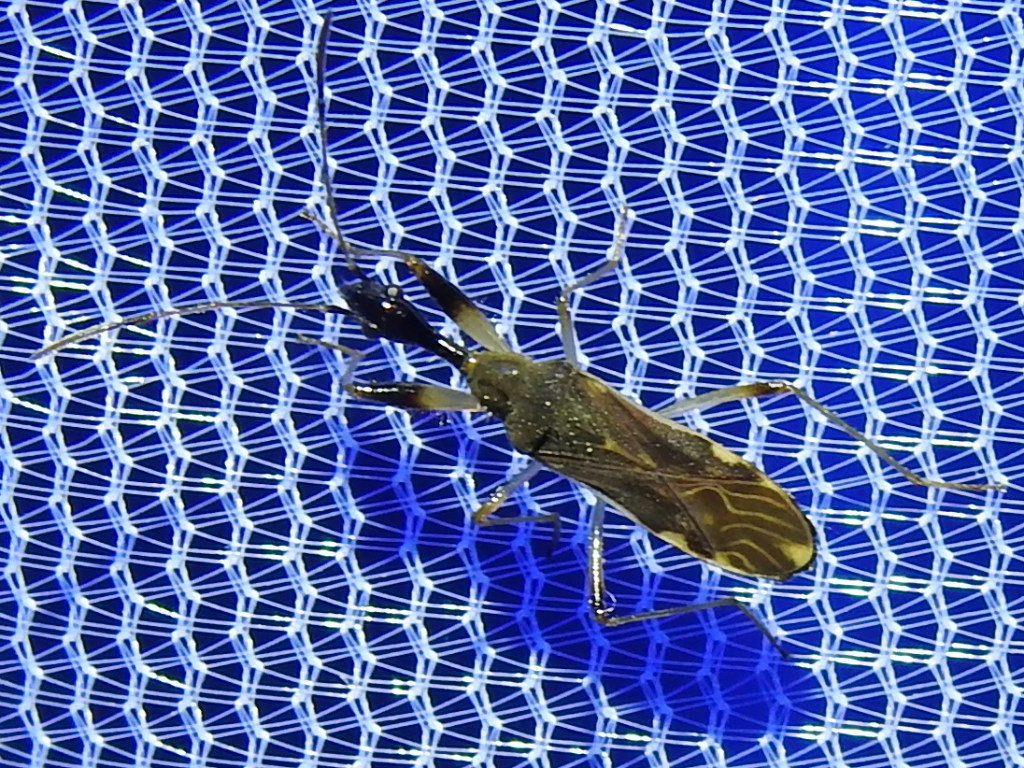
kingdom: Animalia
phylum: Arthropoda
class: Insecta
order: Hemiptera
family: Rhyparochromidae
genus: Myodocha
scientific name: Myodocha serripes
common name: Long-necked seed bug
